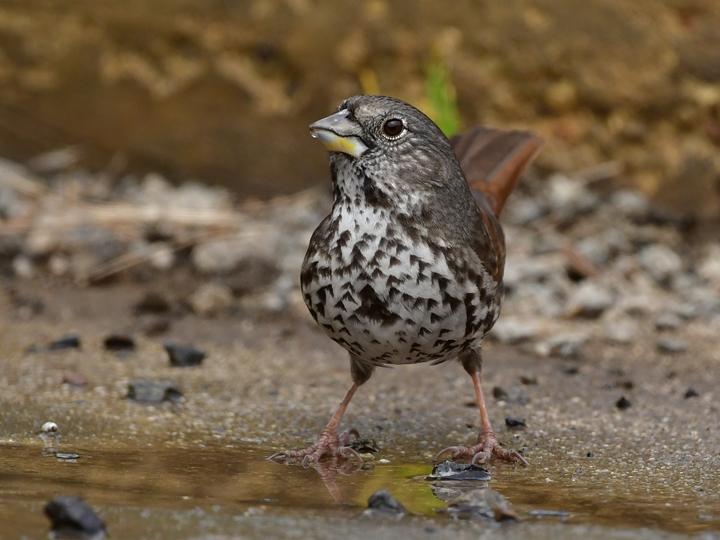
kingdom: Animalia
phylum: Chordata
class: Aves
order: Passeriformes
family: Passerellidae
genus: Passerella
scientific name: Passerella iliaca
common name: Fox sparrow
